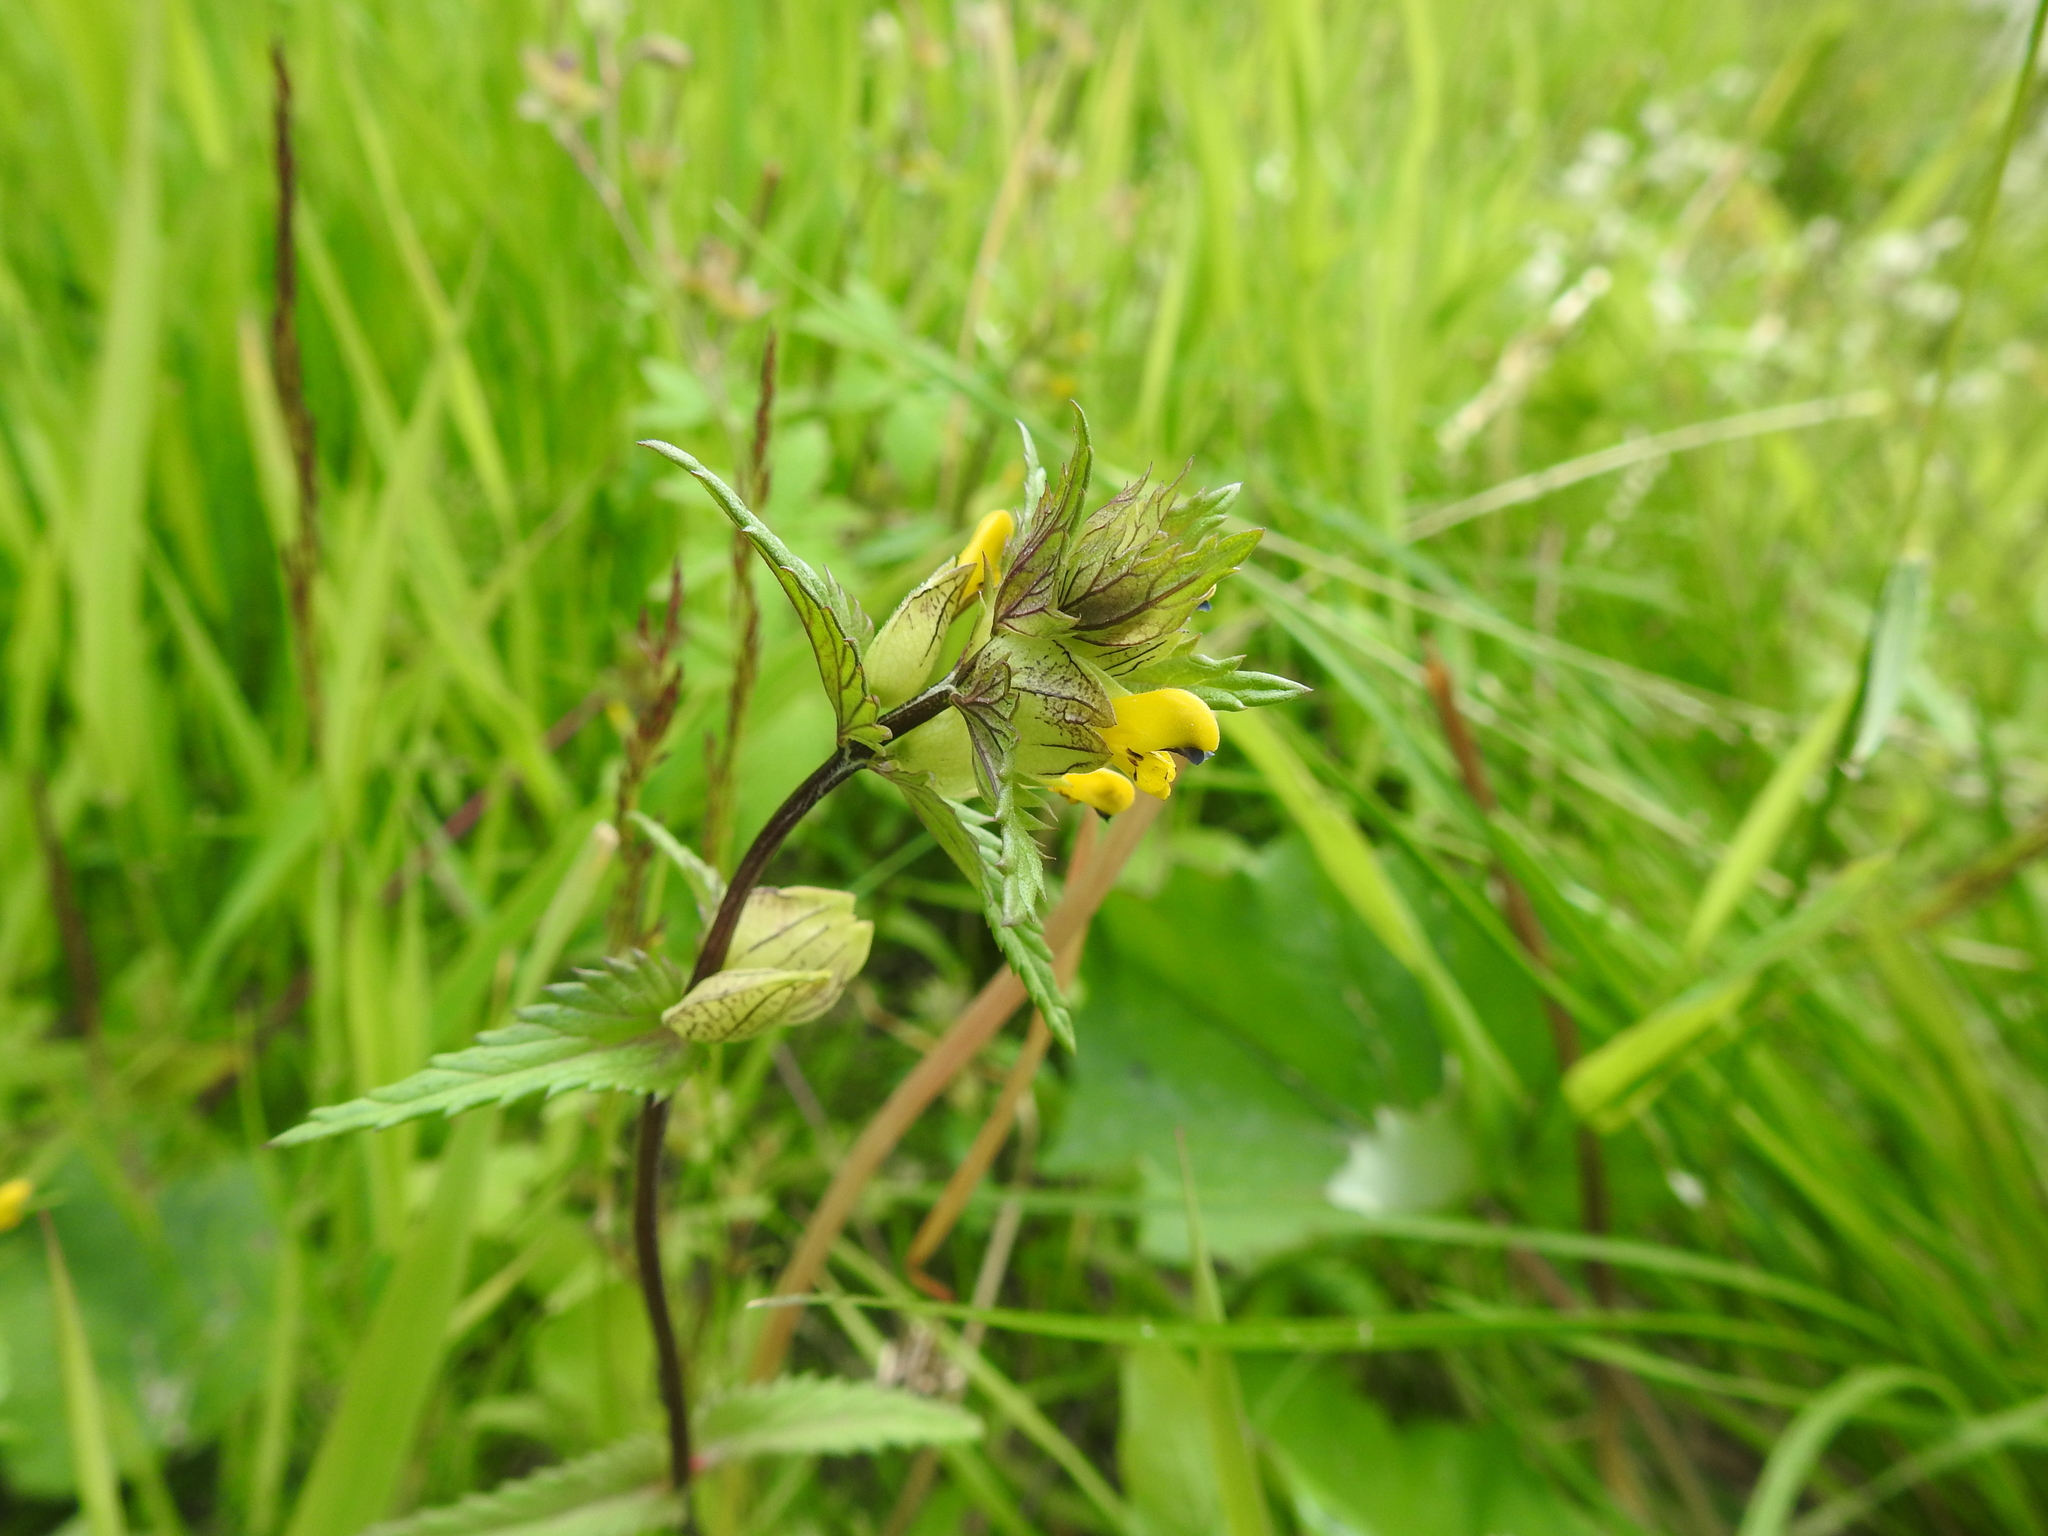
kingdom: Plantae
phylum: Tracheophyta
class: Magnoliopsida
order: Lamiales
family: Orobanchaceae
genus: Rhinanthus
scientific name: Rhinanthus minor
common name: Yellow-rattle
